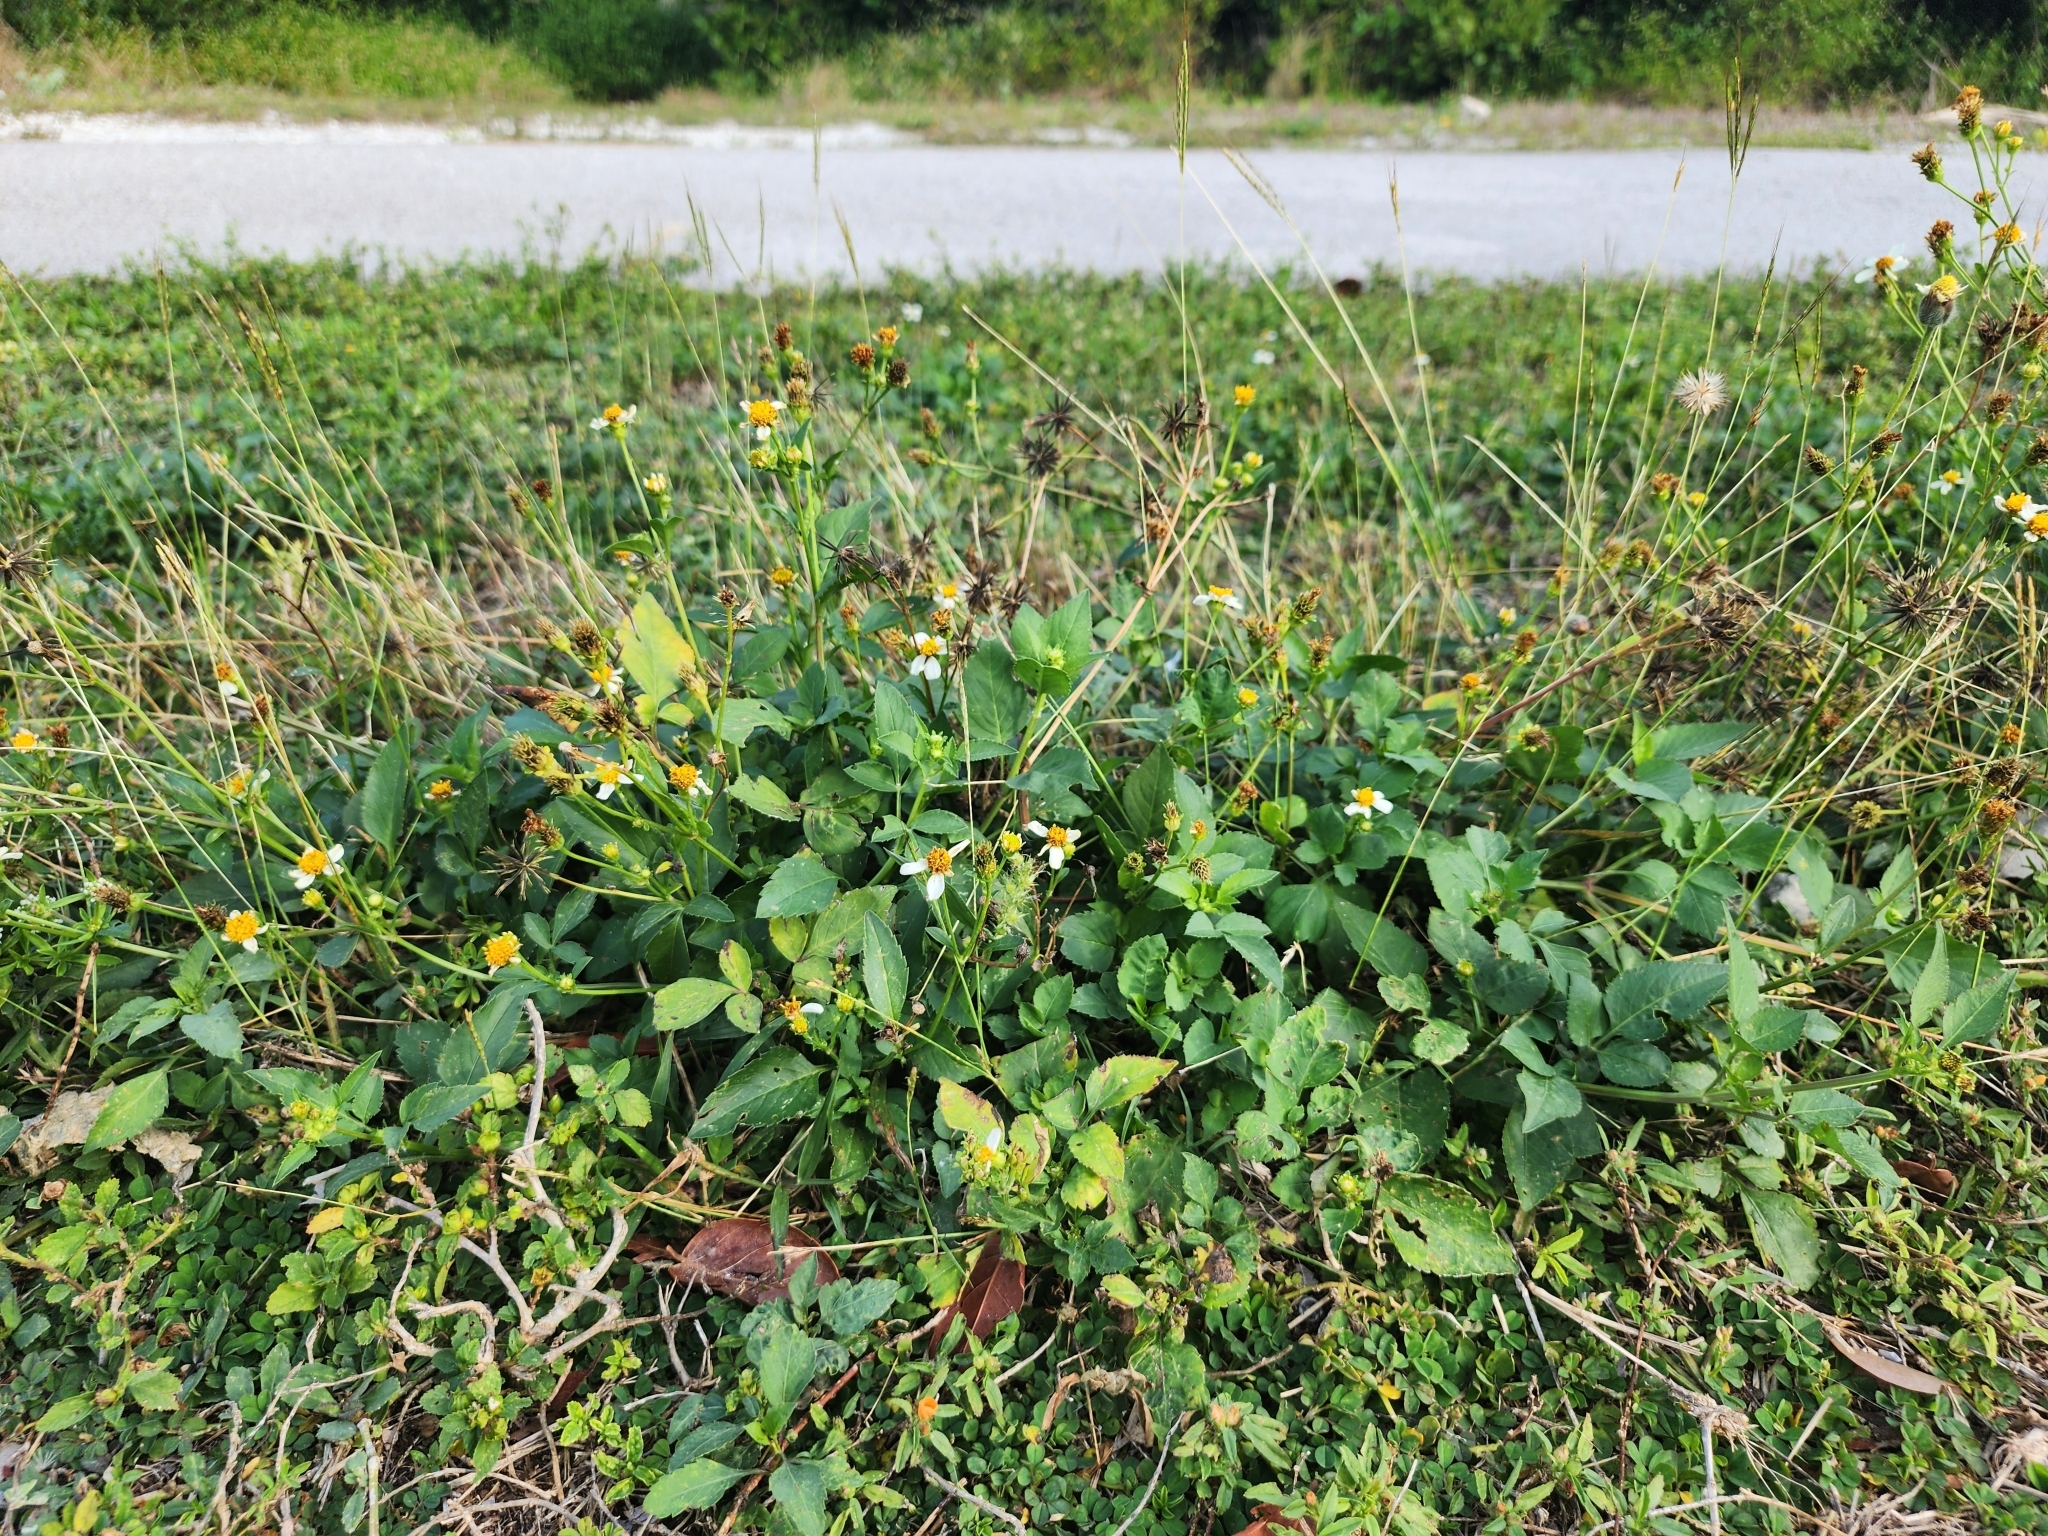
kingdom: Plantae
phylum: Tracheophyta
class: Magnoliopsida
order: Asterales
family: Asteraceae
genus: Bidens
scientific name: Bidens alba
